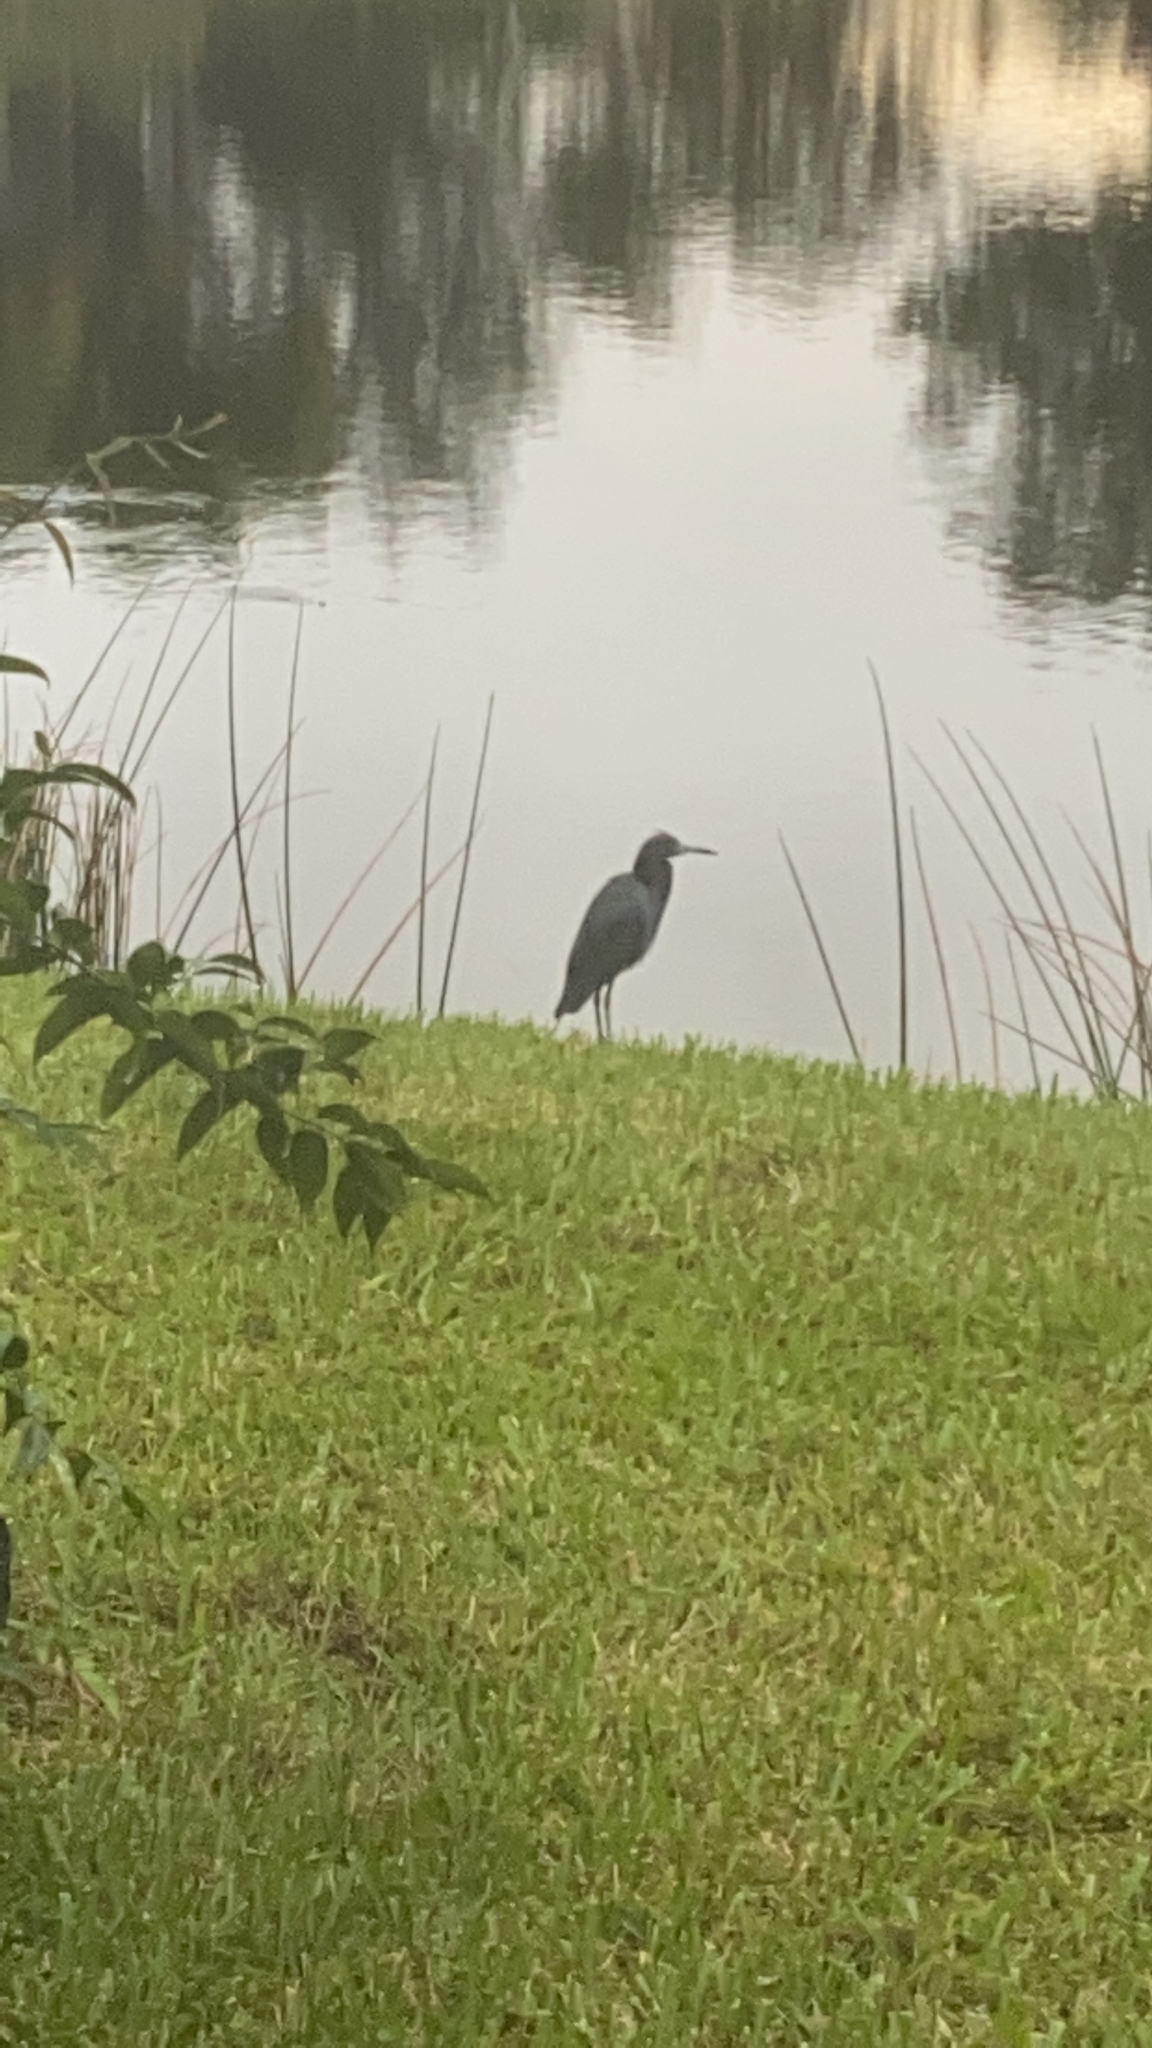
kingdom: Animalia
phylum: Chordata
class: Aves
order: Pelecaniformes
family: Ardeidae
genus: Egretta
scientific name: Egretta caerulea
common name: Little blue heron
